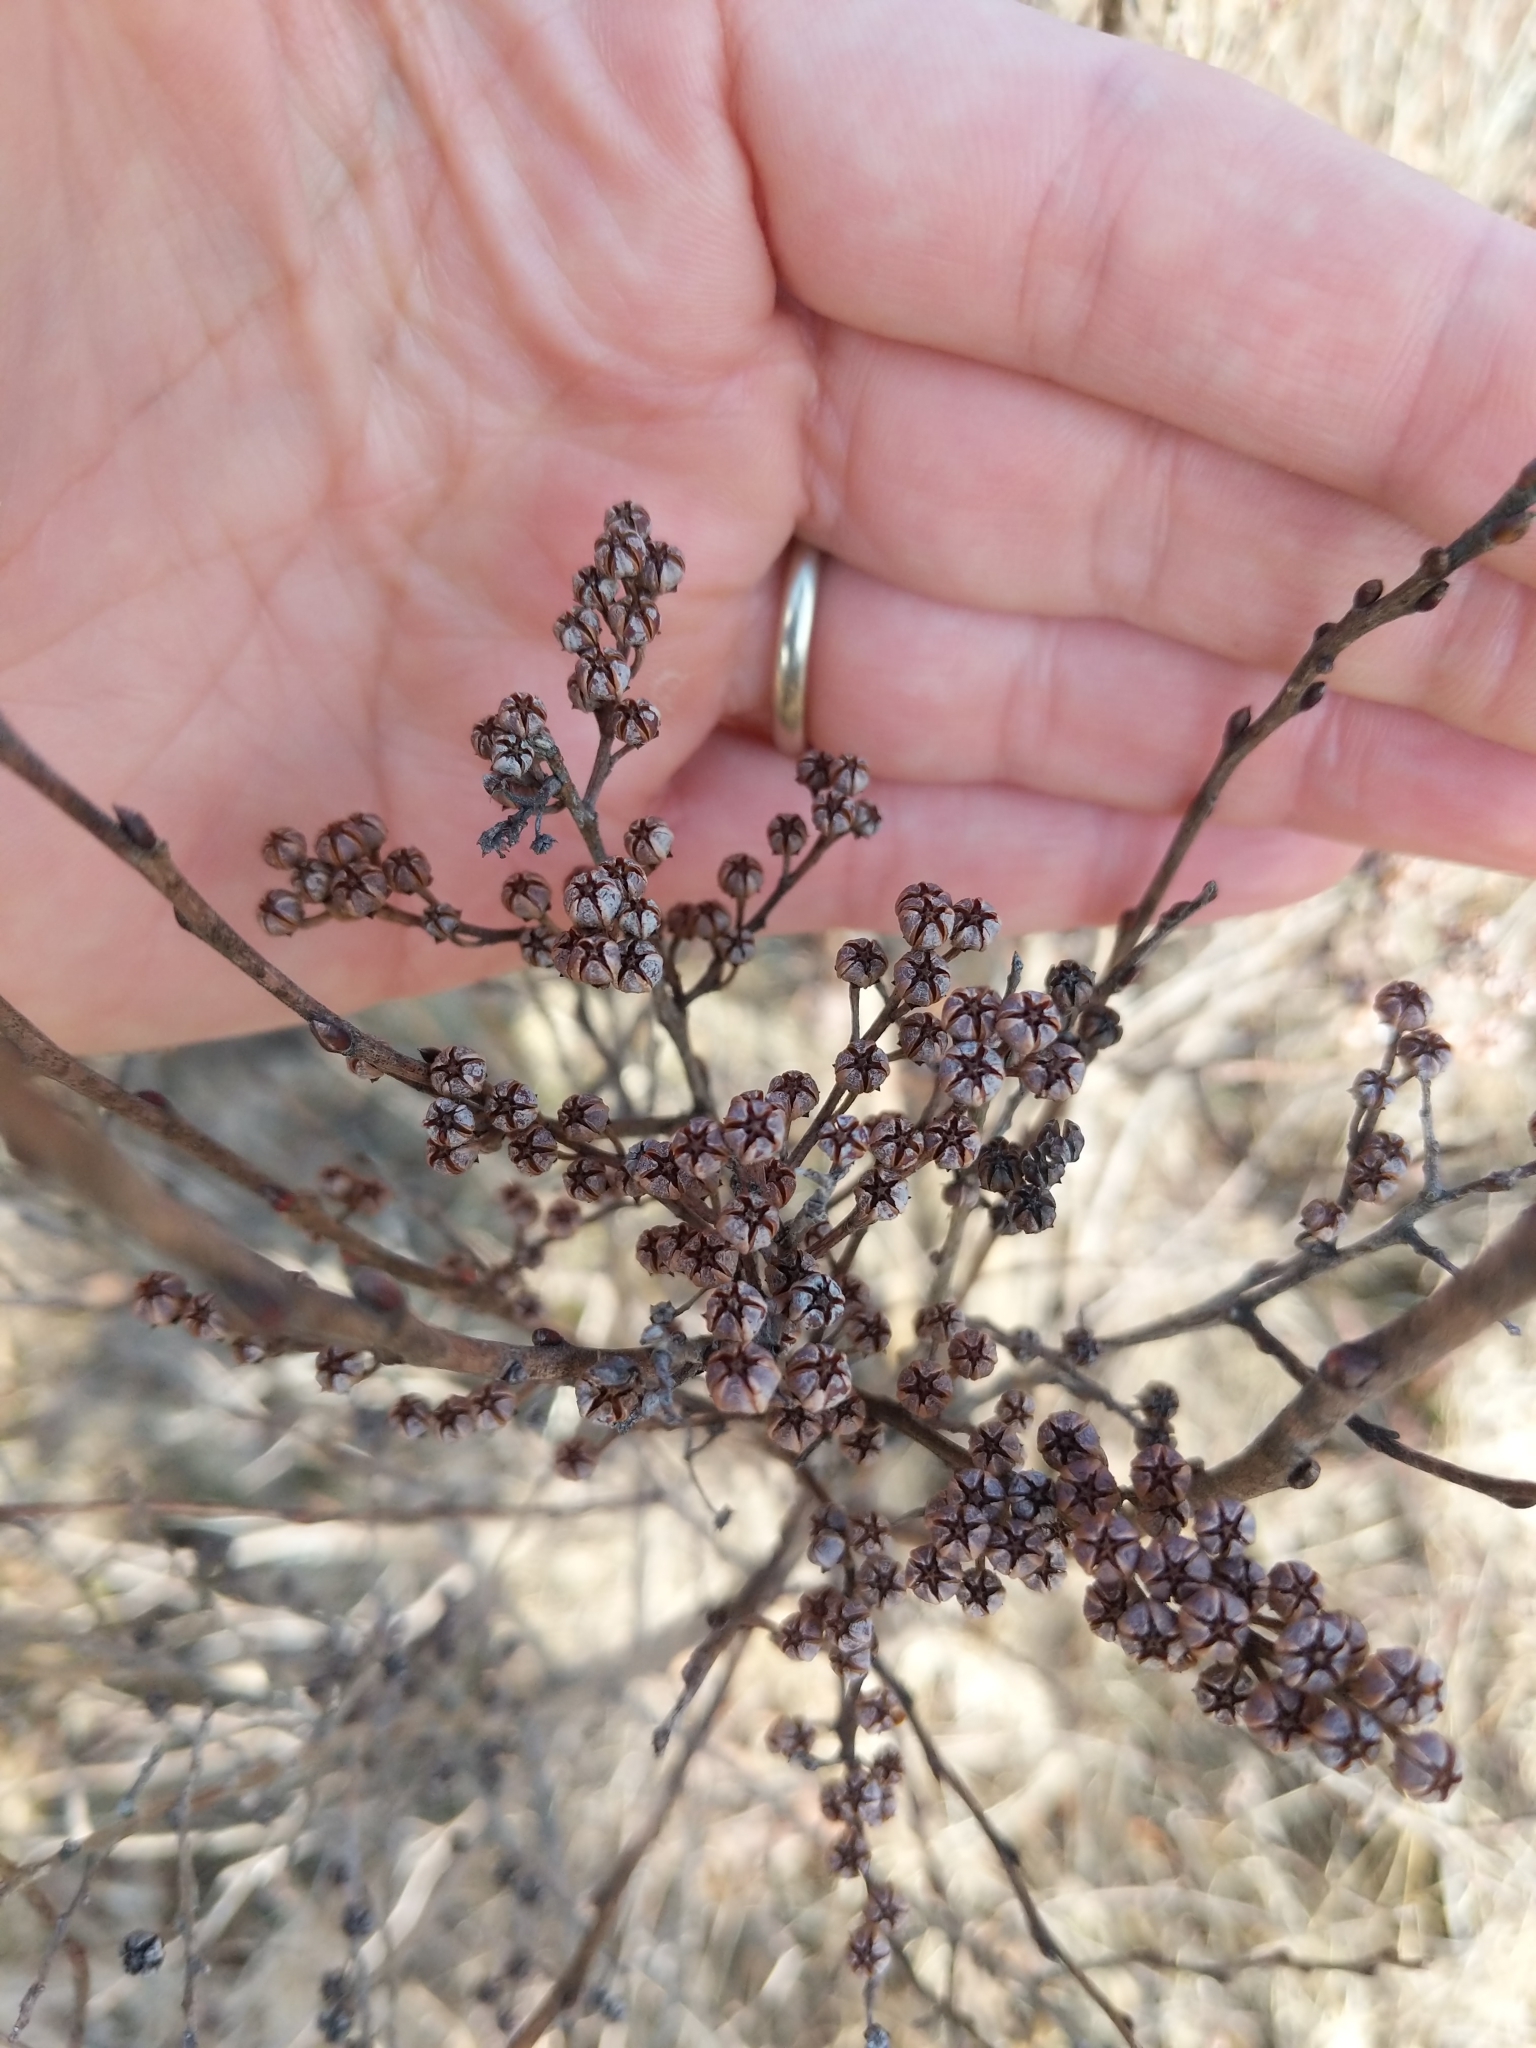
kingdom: Plantae
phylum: Tracheophyta
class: Magnoliopsida
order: Ericales
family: Ericaceae
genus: Lyonia
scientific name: Lyonia ligustrina
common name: Maleberry
